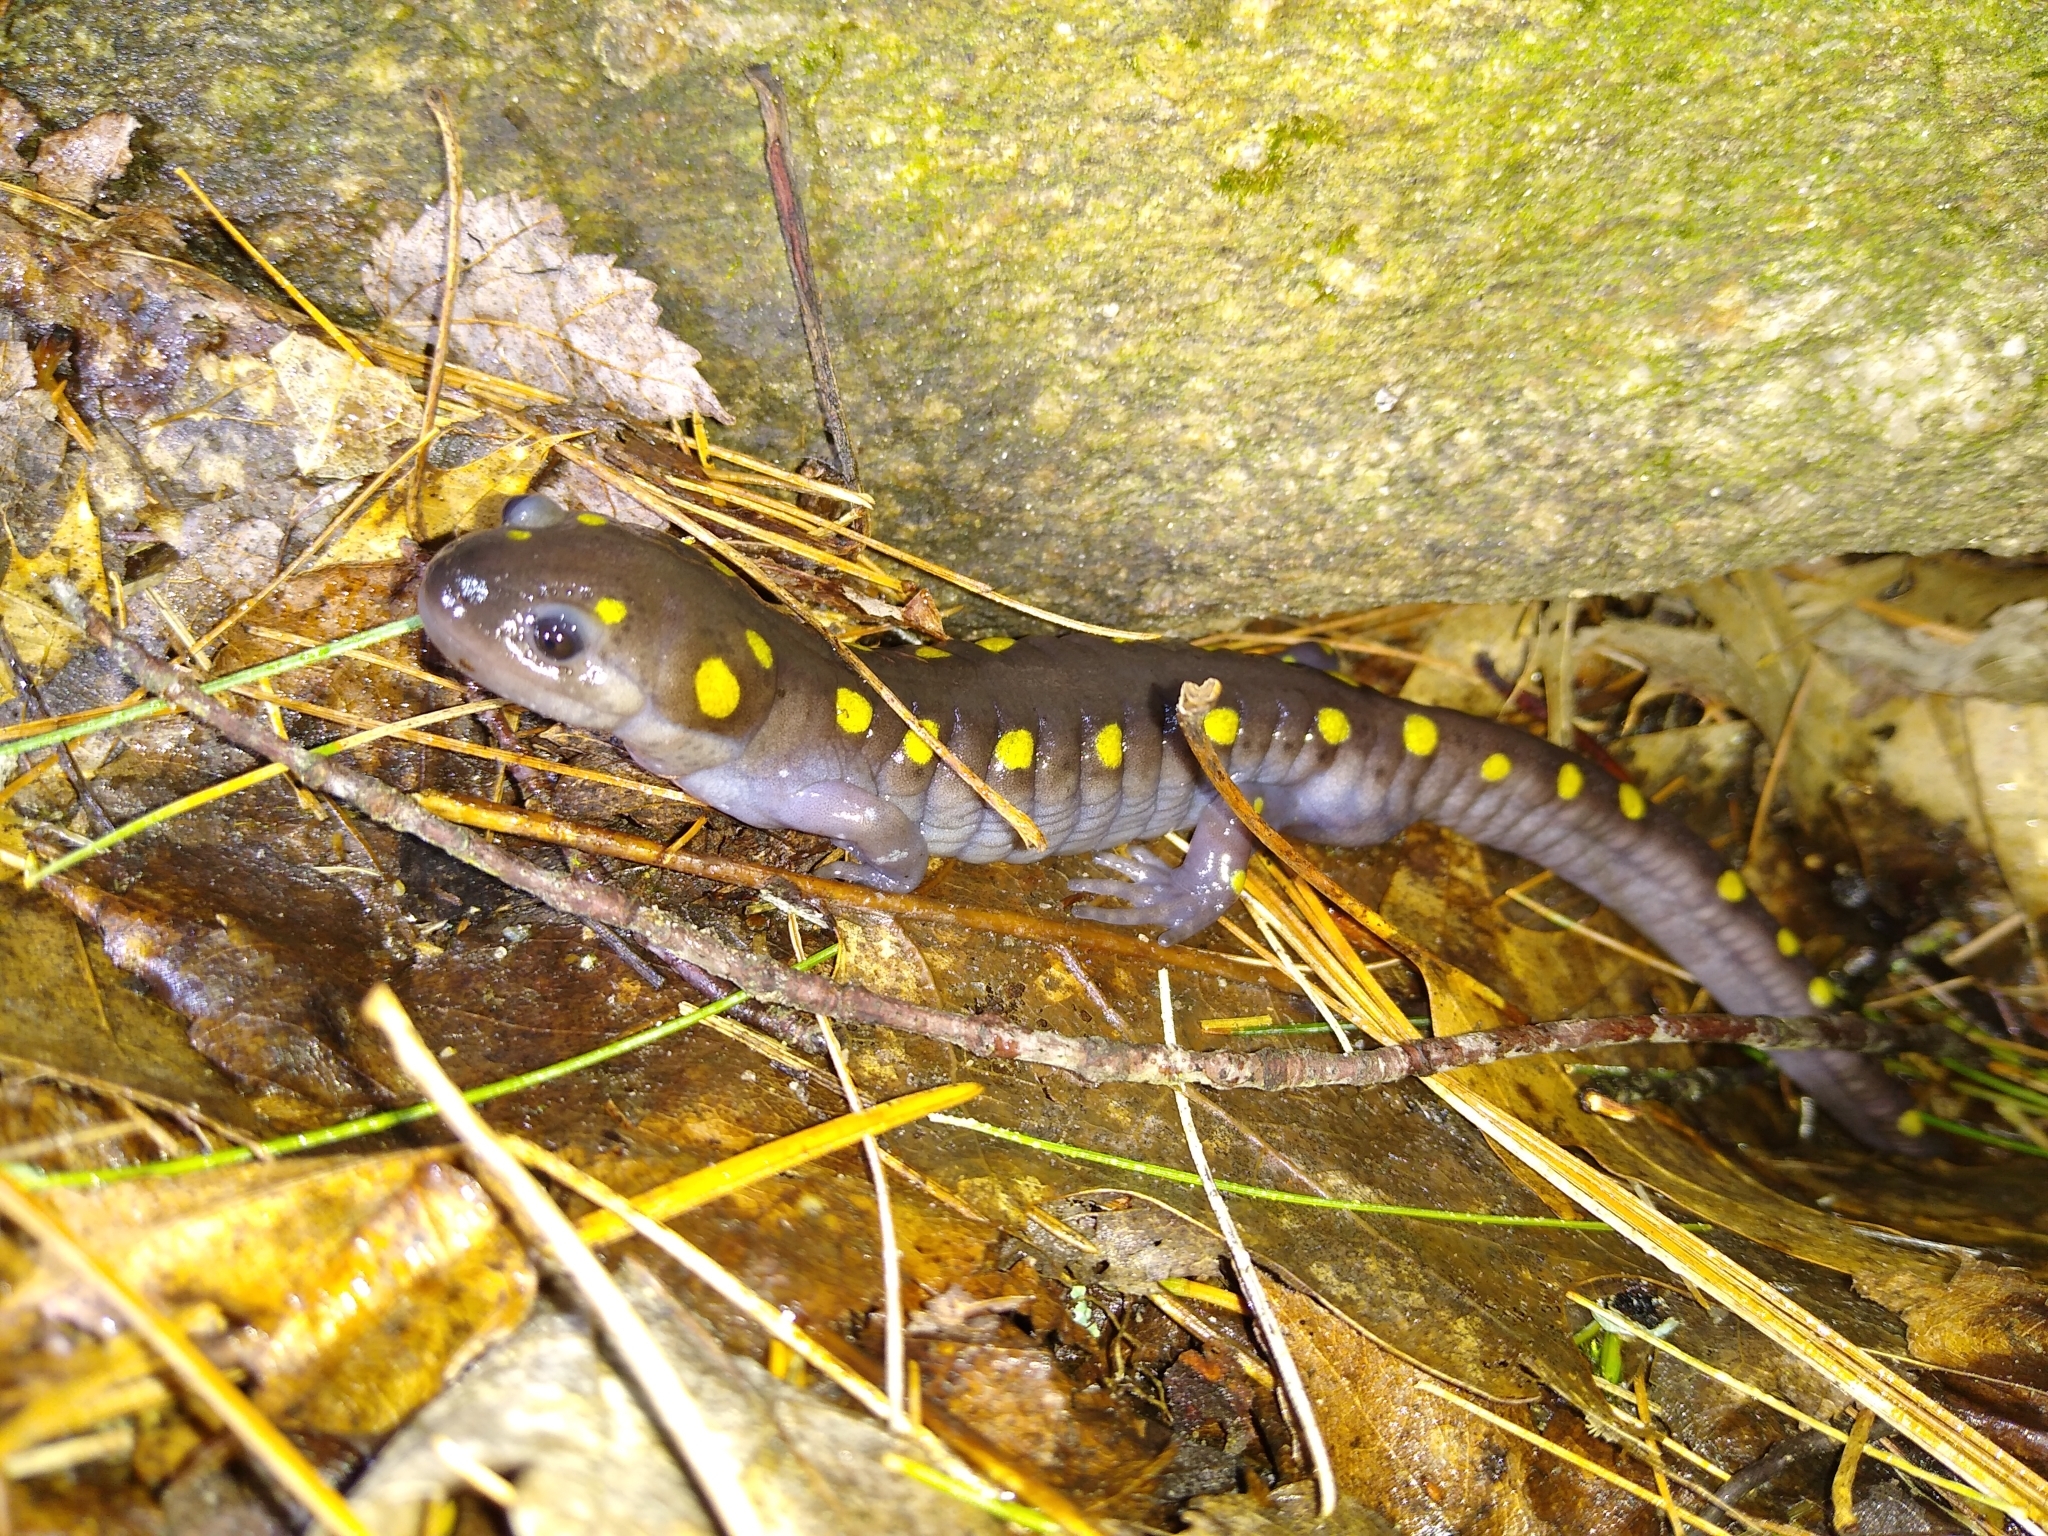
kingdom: Animalia
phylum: Chordata
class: Amphibia
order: Caudata
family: Ambystomatidae
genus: Ambystoma
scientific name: Ambystoma maculatum
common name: Spotted salamander
